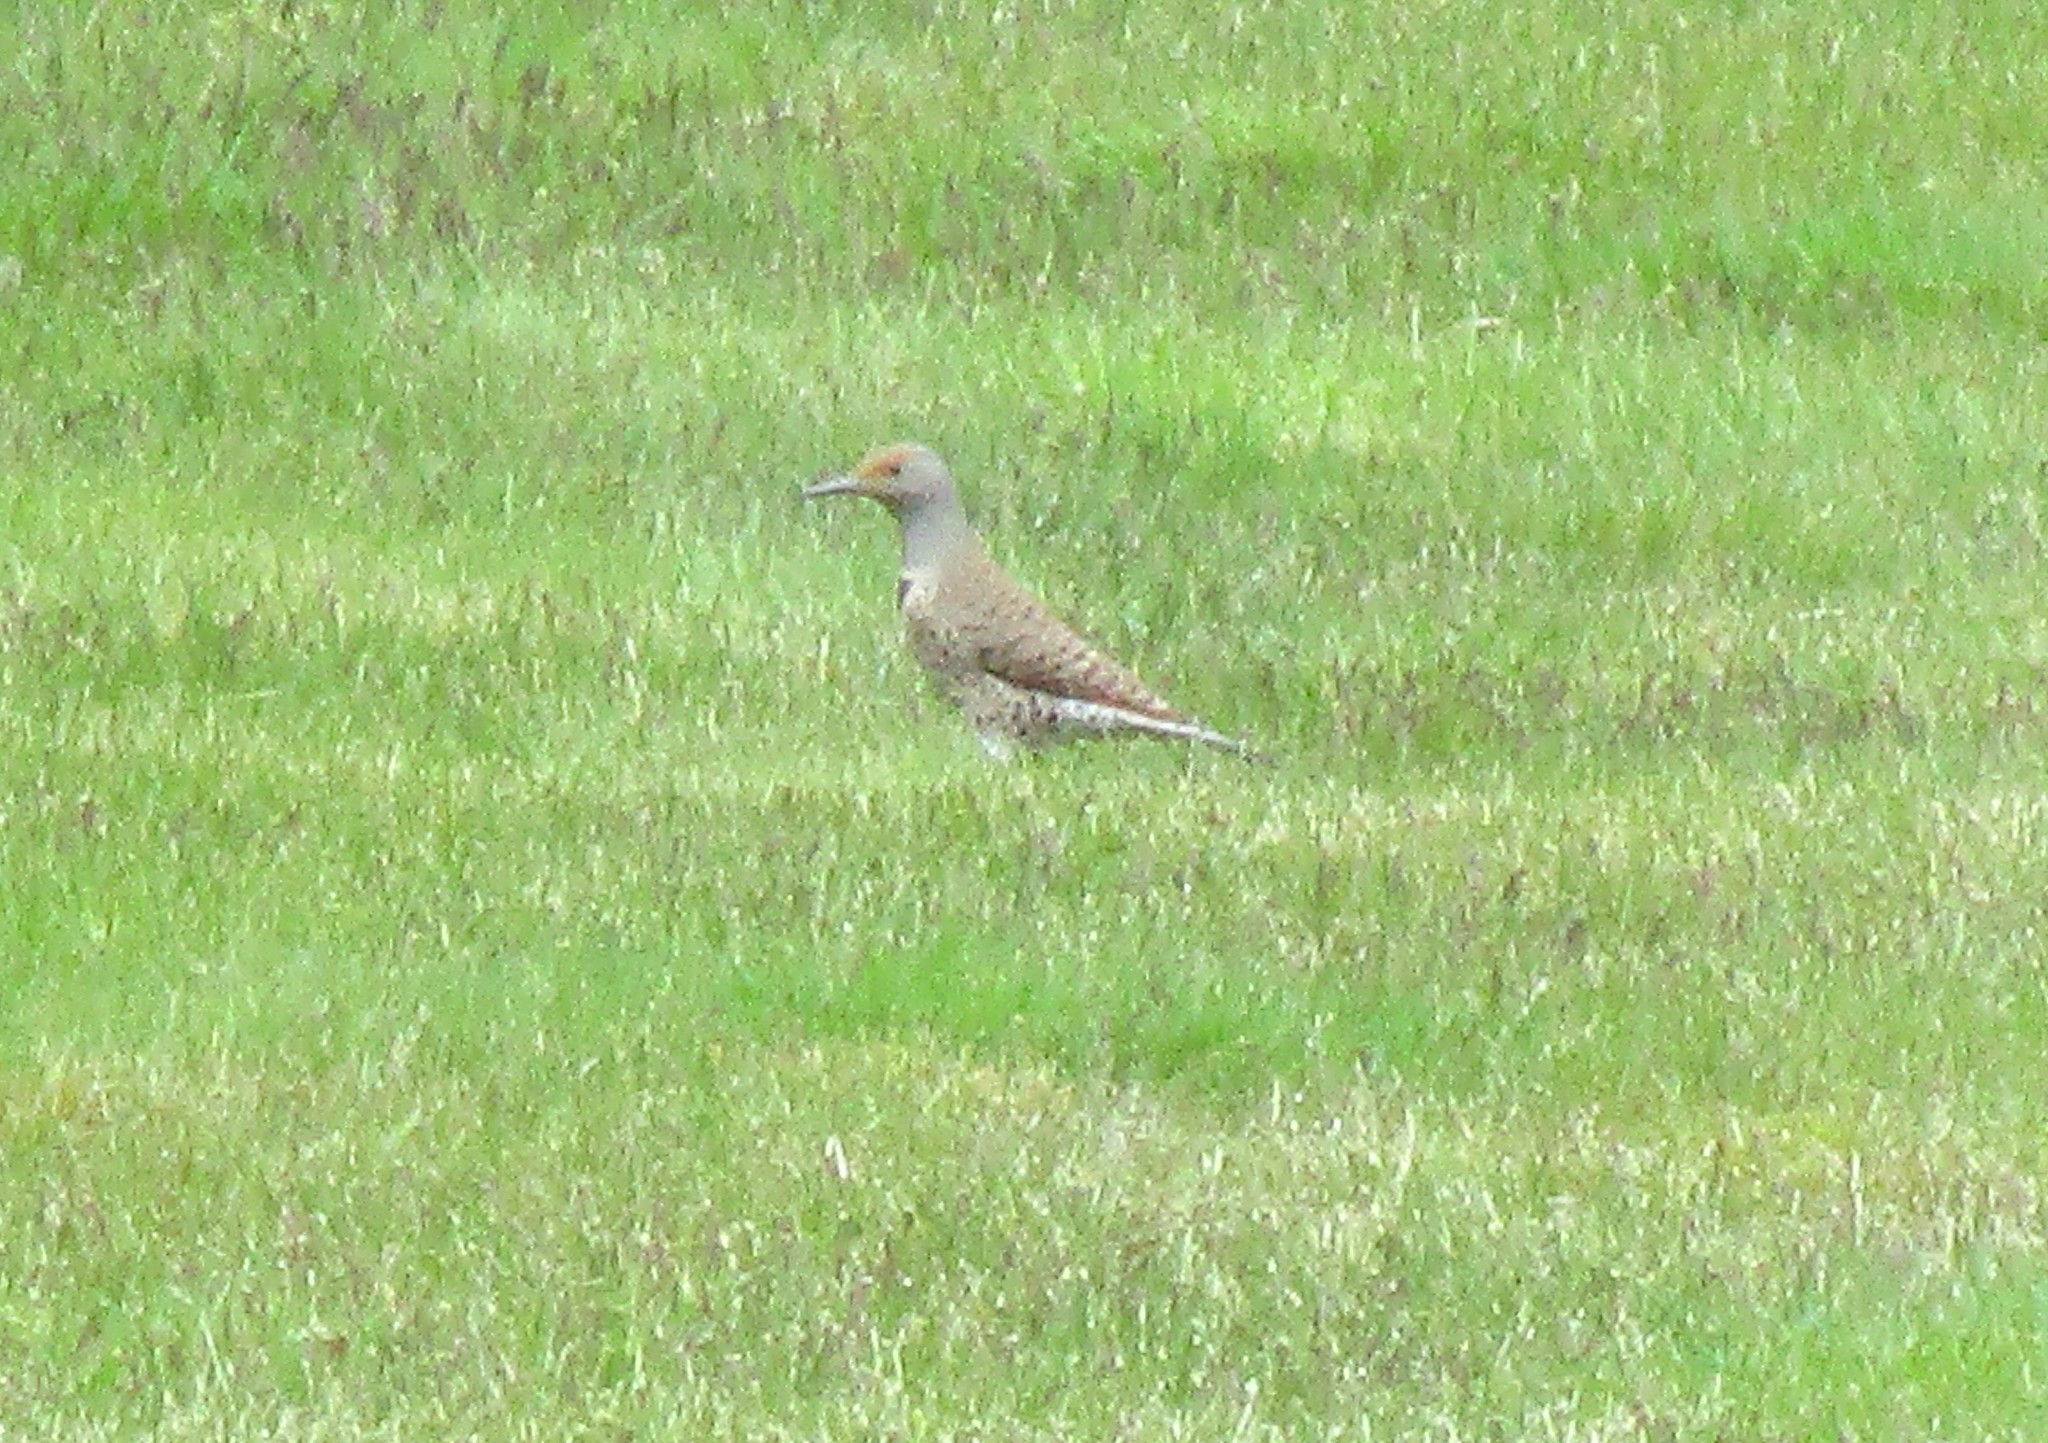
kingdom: Animalia
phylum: Chordata
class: Aves
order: Piciformes
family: Picidae
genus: Colaptes
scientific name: Colaptes auratus
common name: Northern flicker
